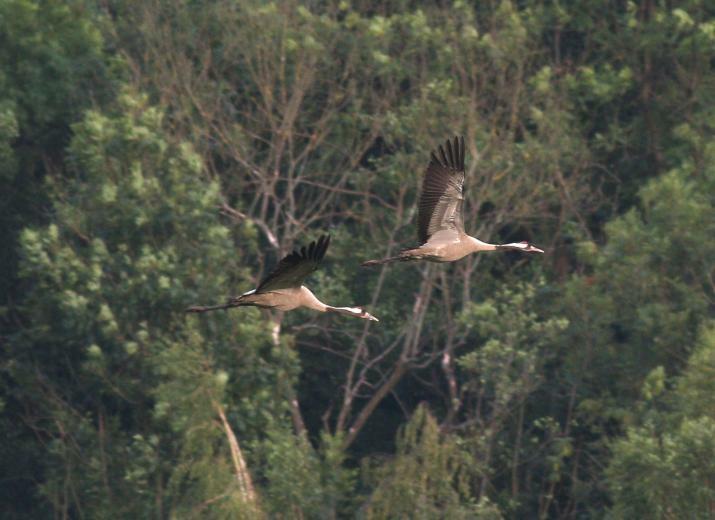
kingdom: Animalia
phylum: Chordata
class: Aves
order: Gruiformes
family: Gruidae
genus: Grus
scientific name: Grus grus
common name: Common crane
